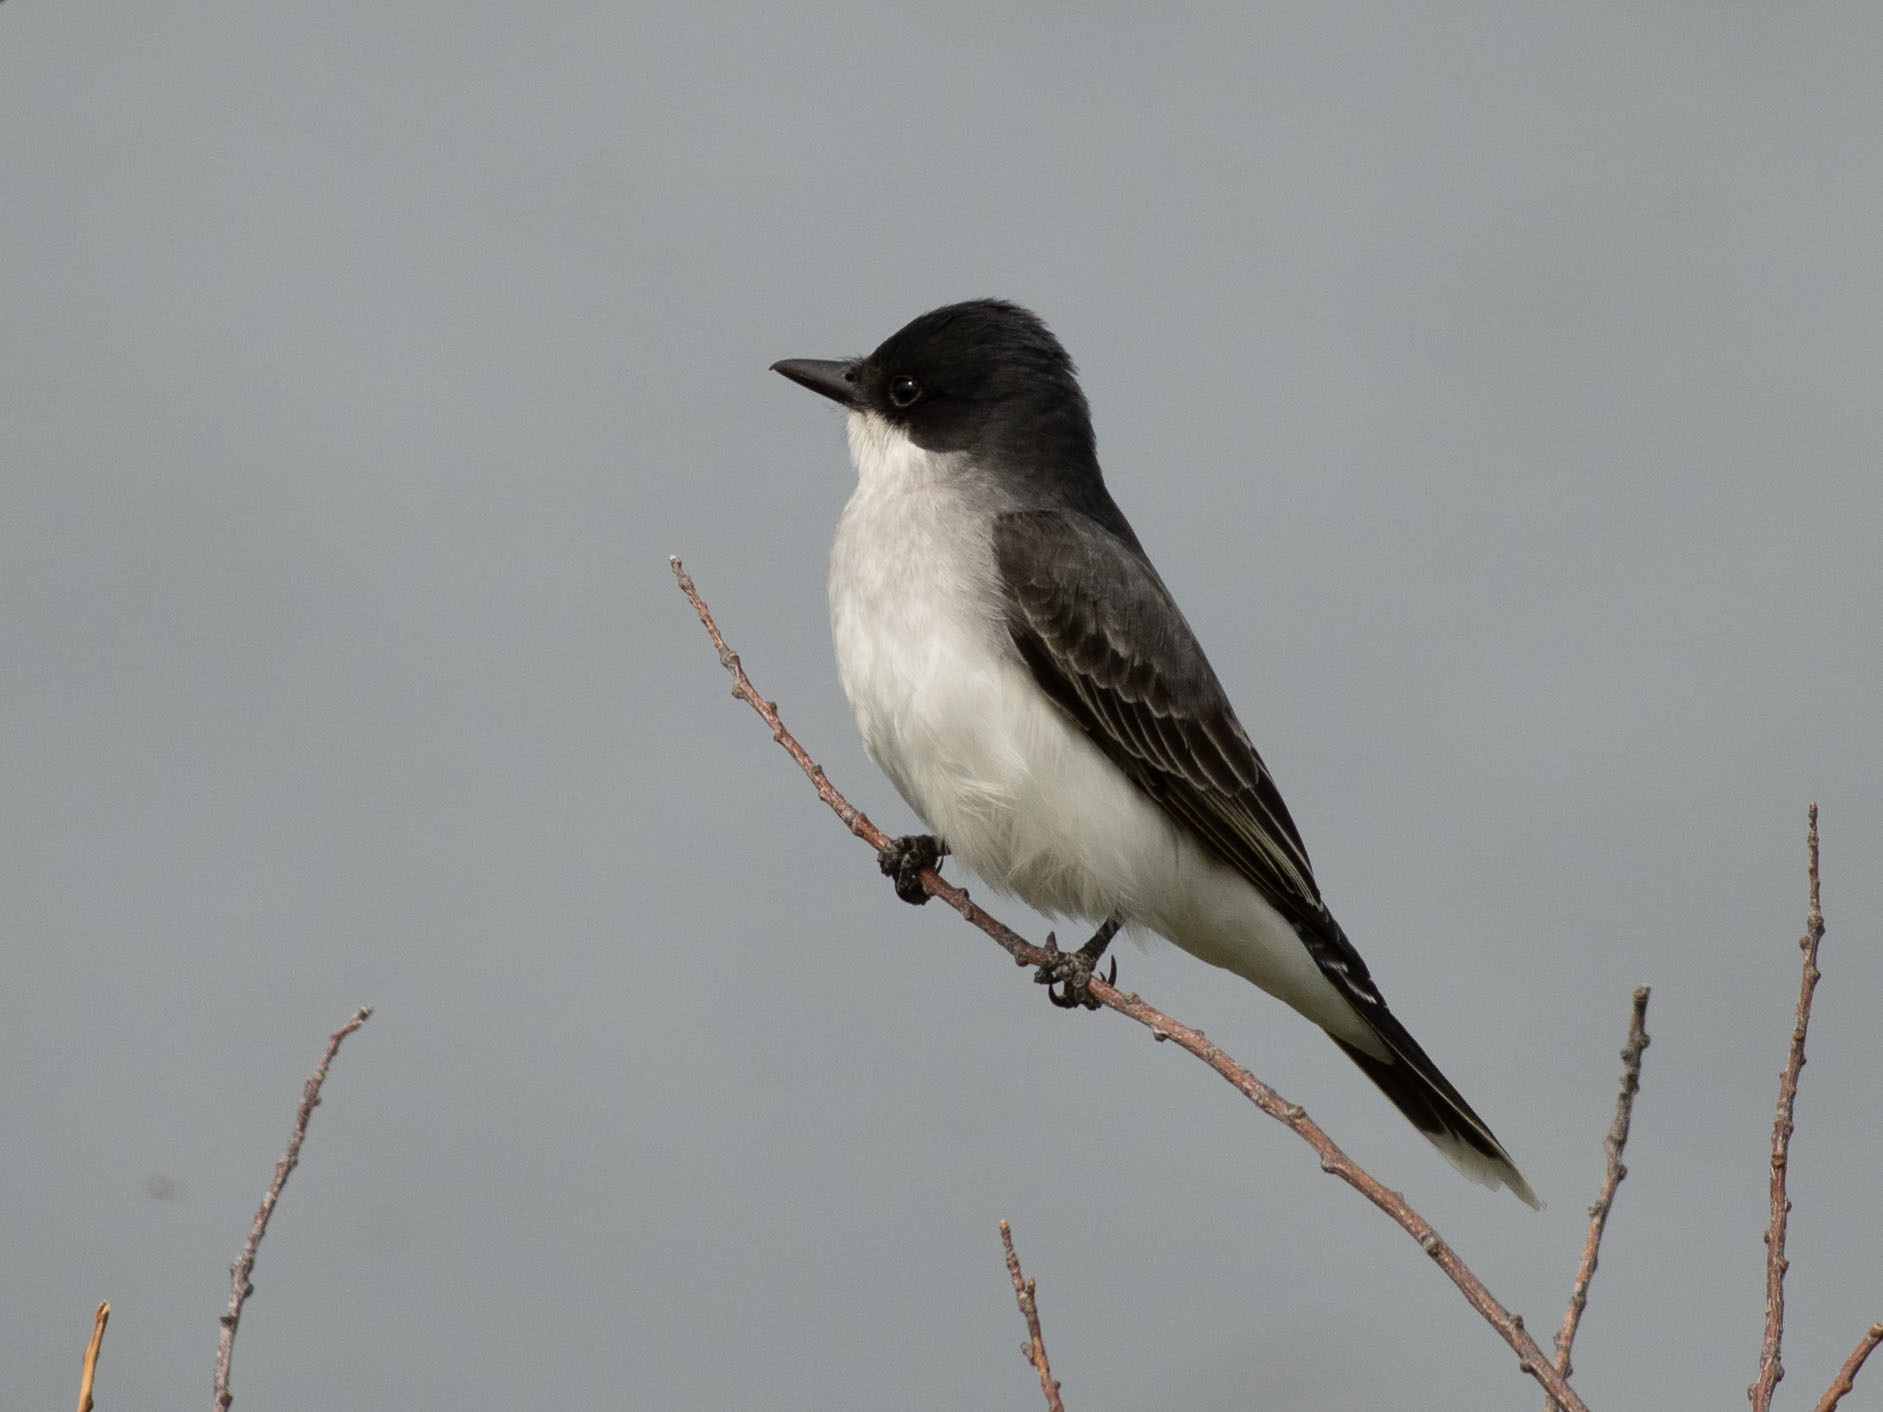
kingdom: Animalia
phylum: Chordata
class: Aves
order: Passeriformes
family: Tyrannidae
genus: Tyrannus
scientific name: Tyrannus tyrannus
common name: Eastern kingbird
